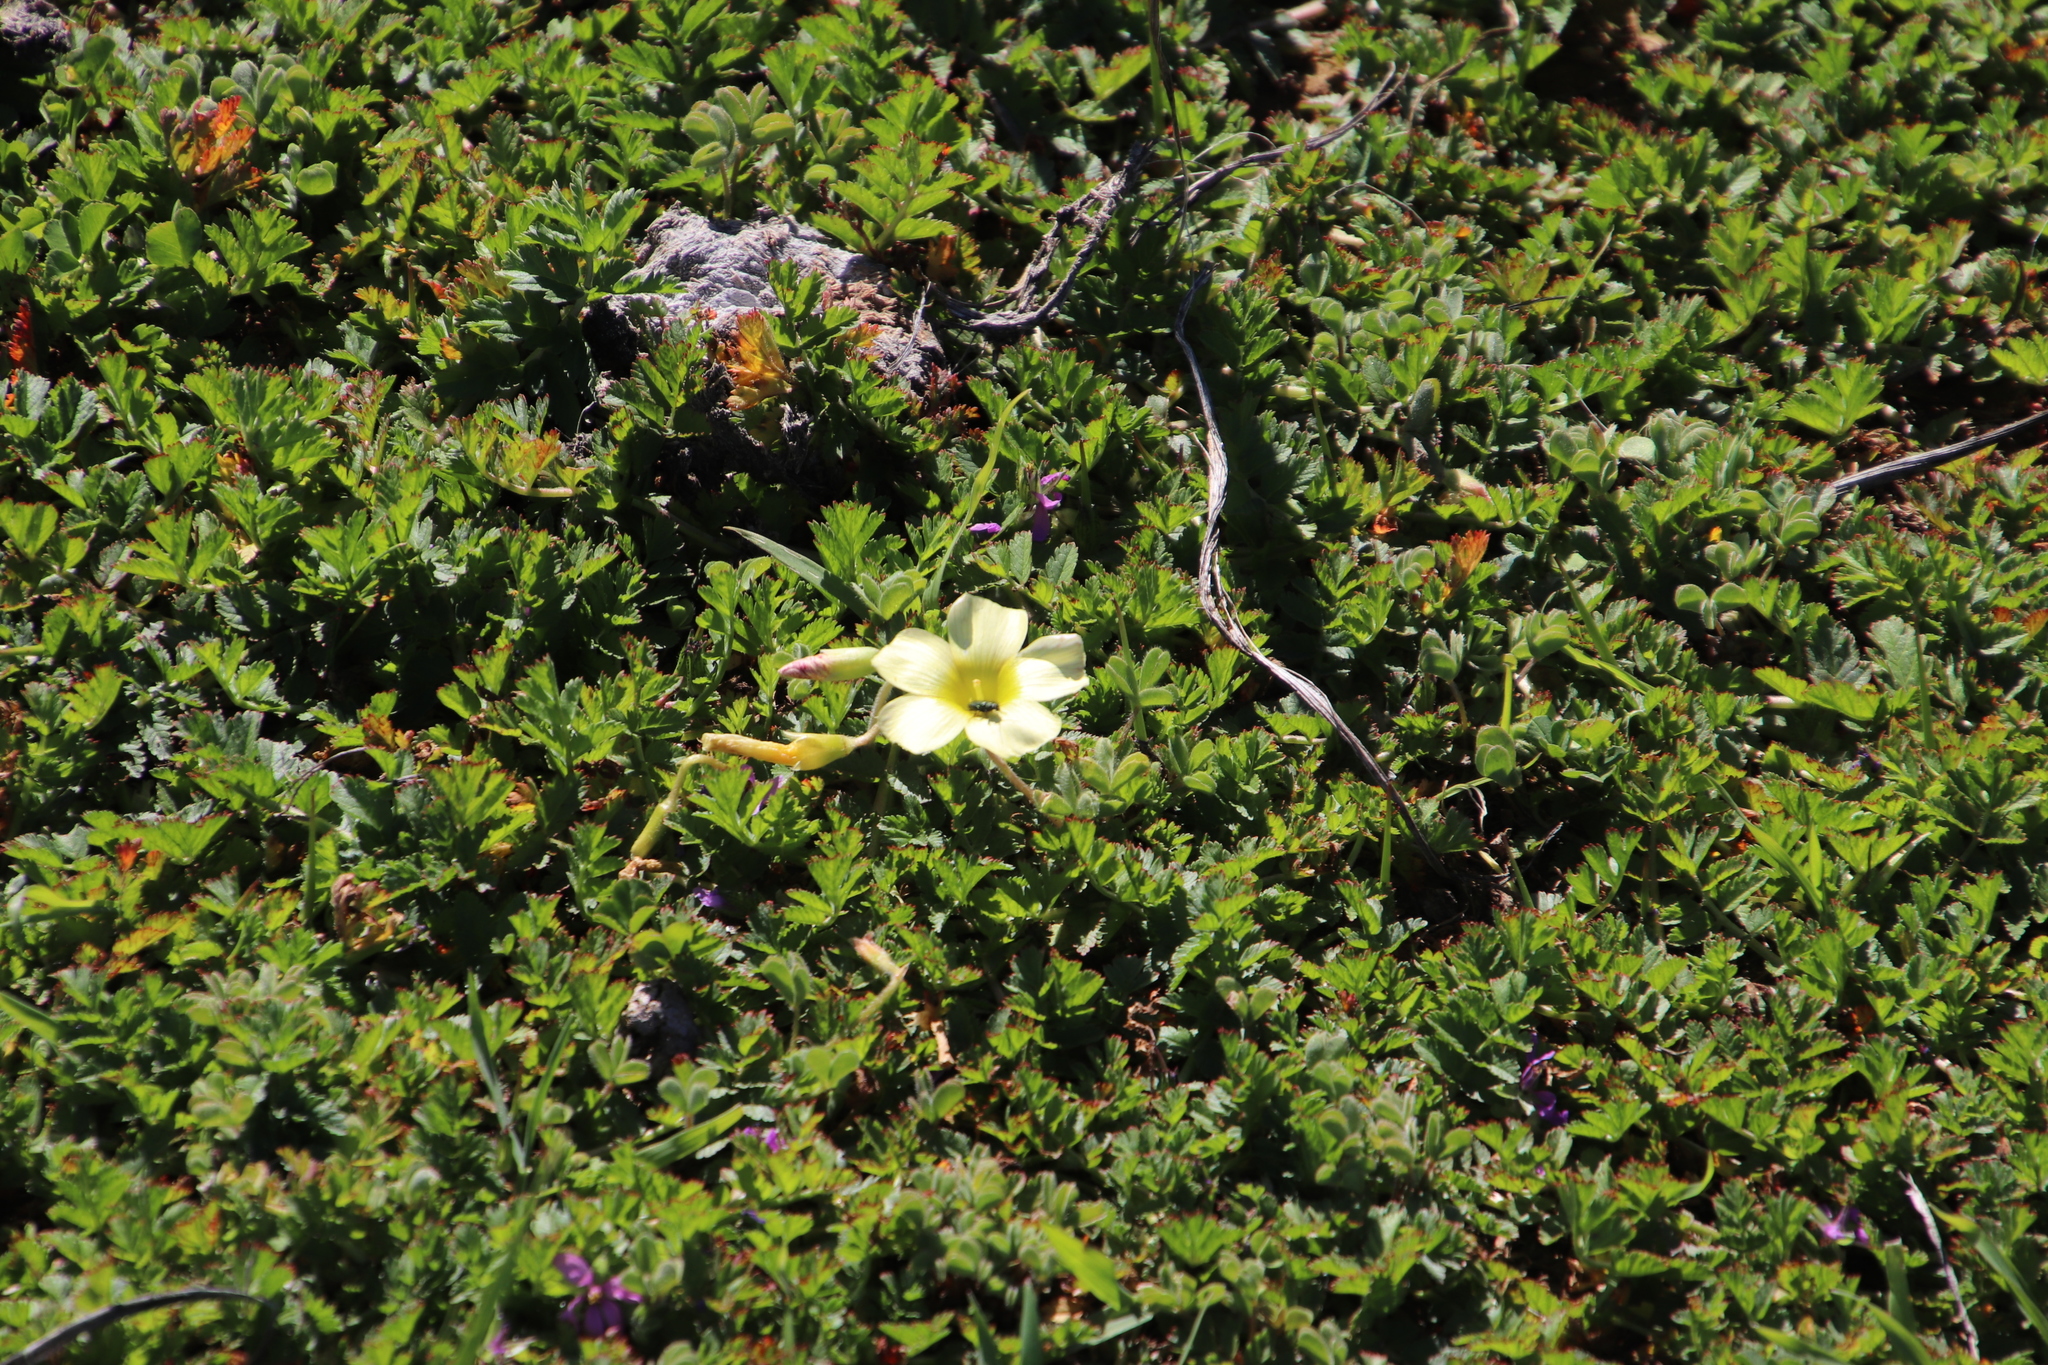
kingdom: Plantae
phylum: Tracheophyta
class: Magnoliopsida
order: Oxalidales
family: Oxalidaceae
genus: Oxalis
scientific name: Oxalis obtusa
